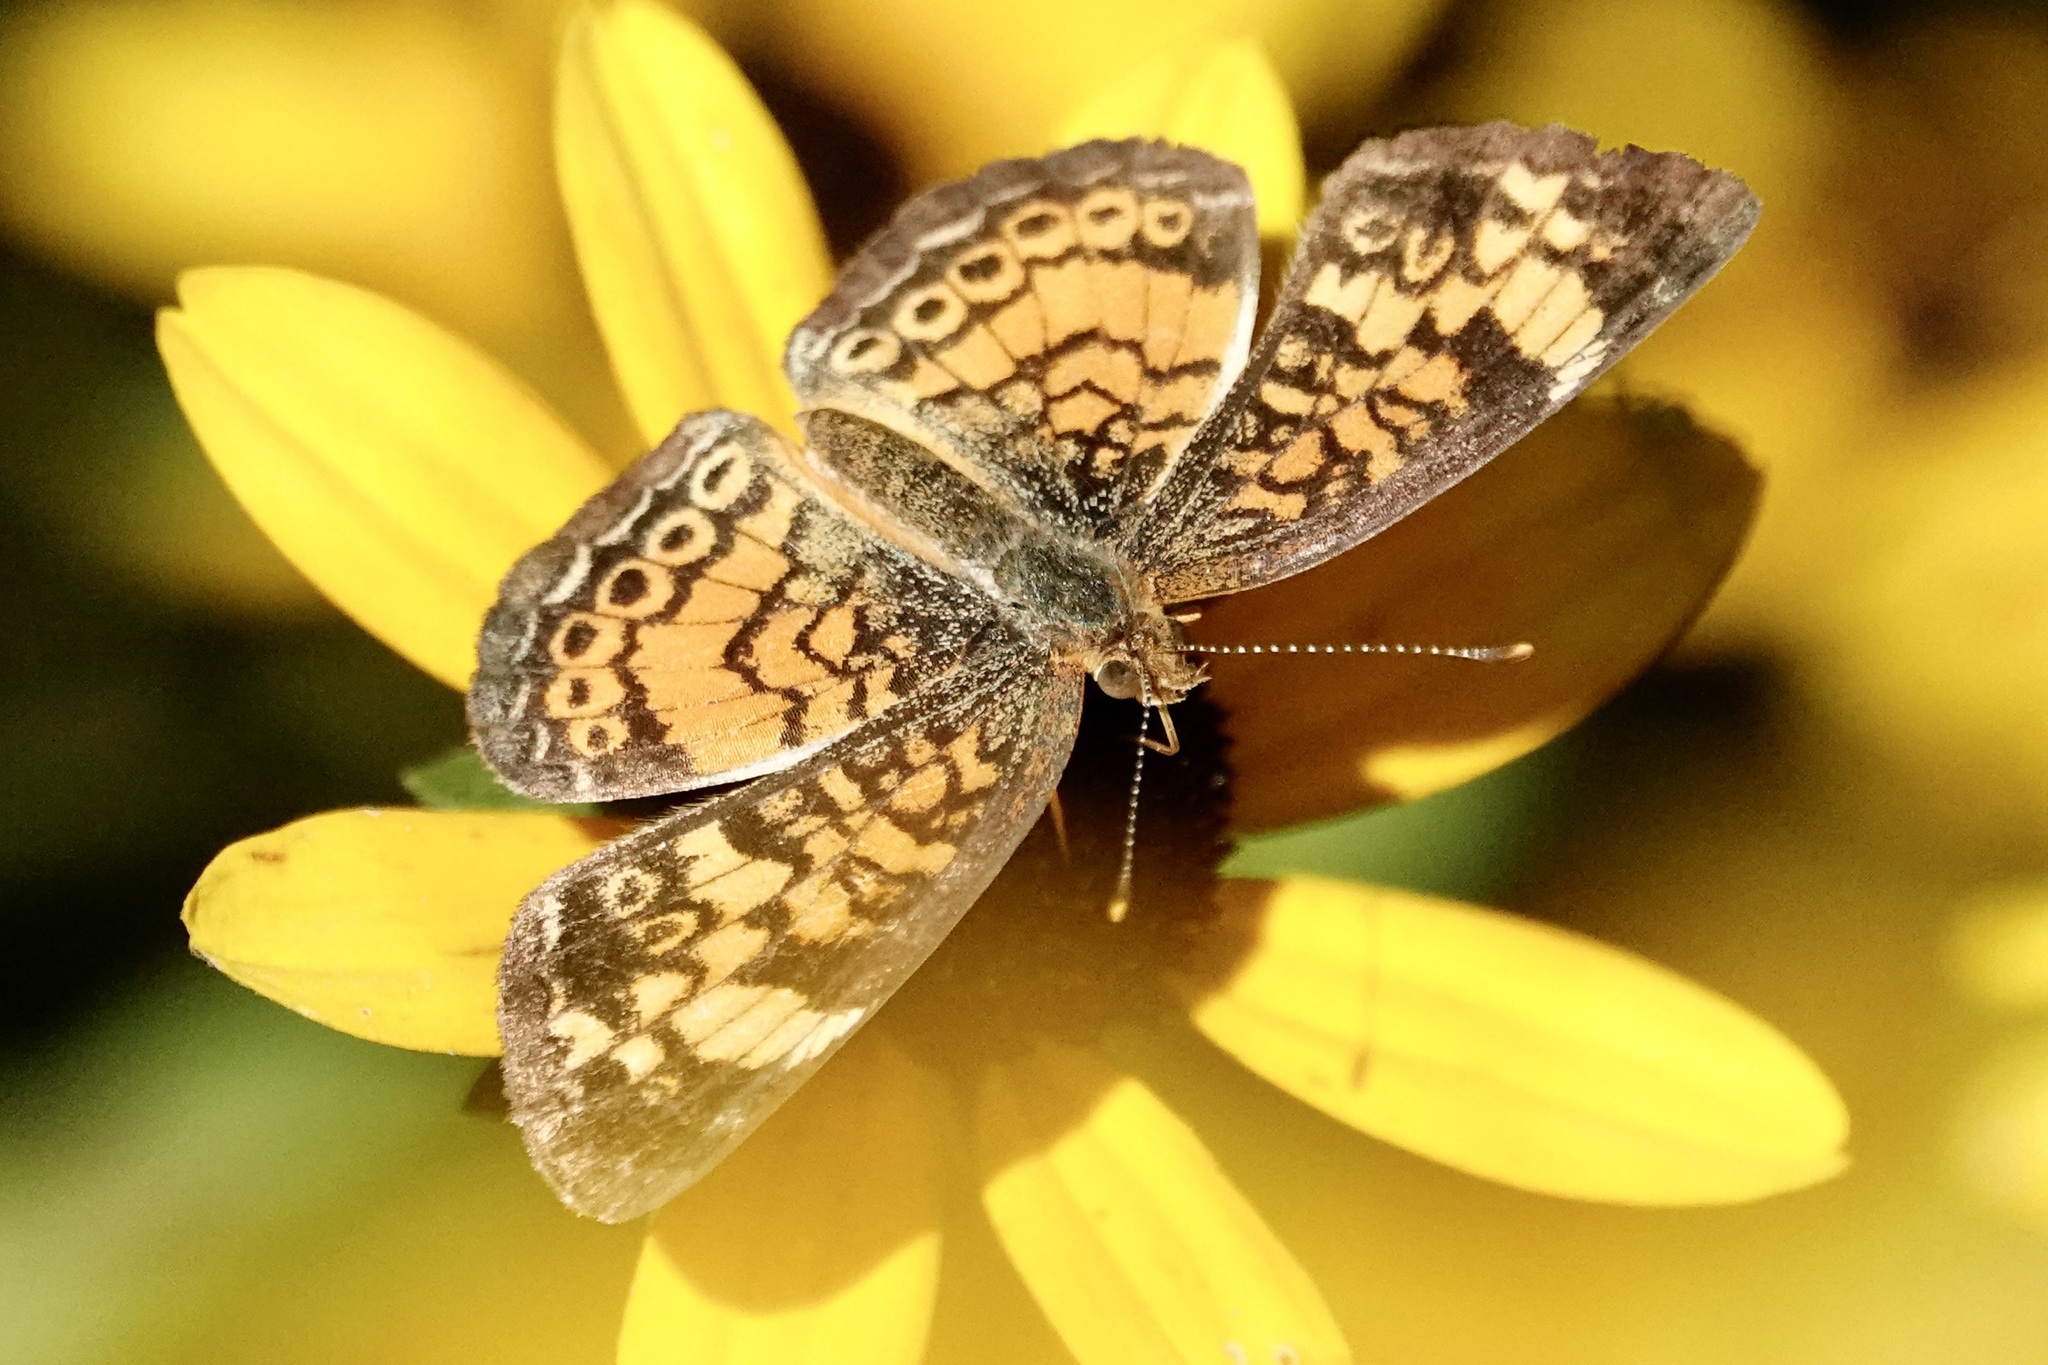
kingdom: Animalia
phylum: Arthropoda
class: Insecta
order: Lepidoptera
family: Nymphalidae
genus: Phyciodes
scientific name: Phyciodes tharos
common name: Pearl crescent
